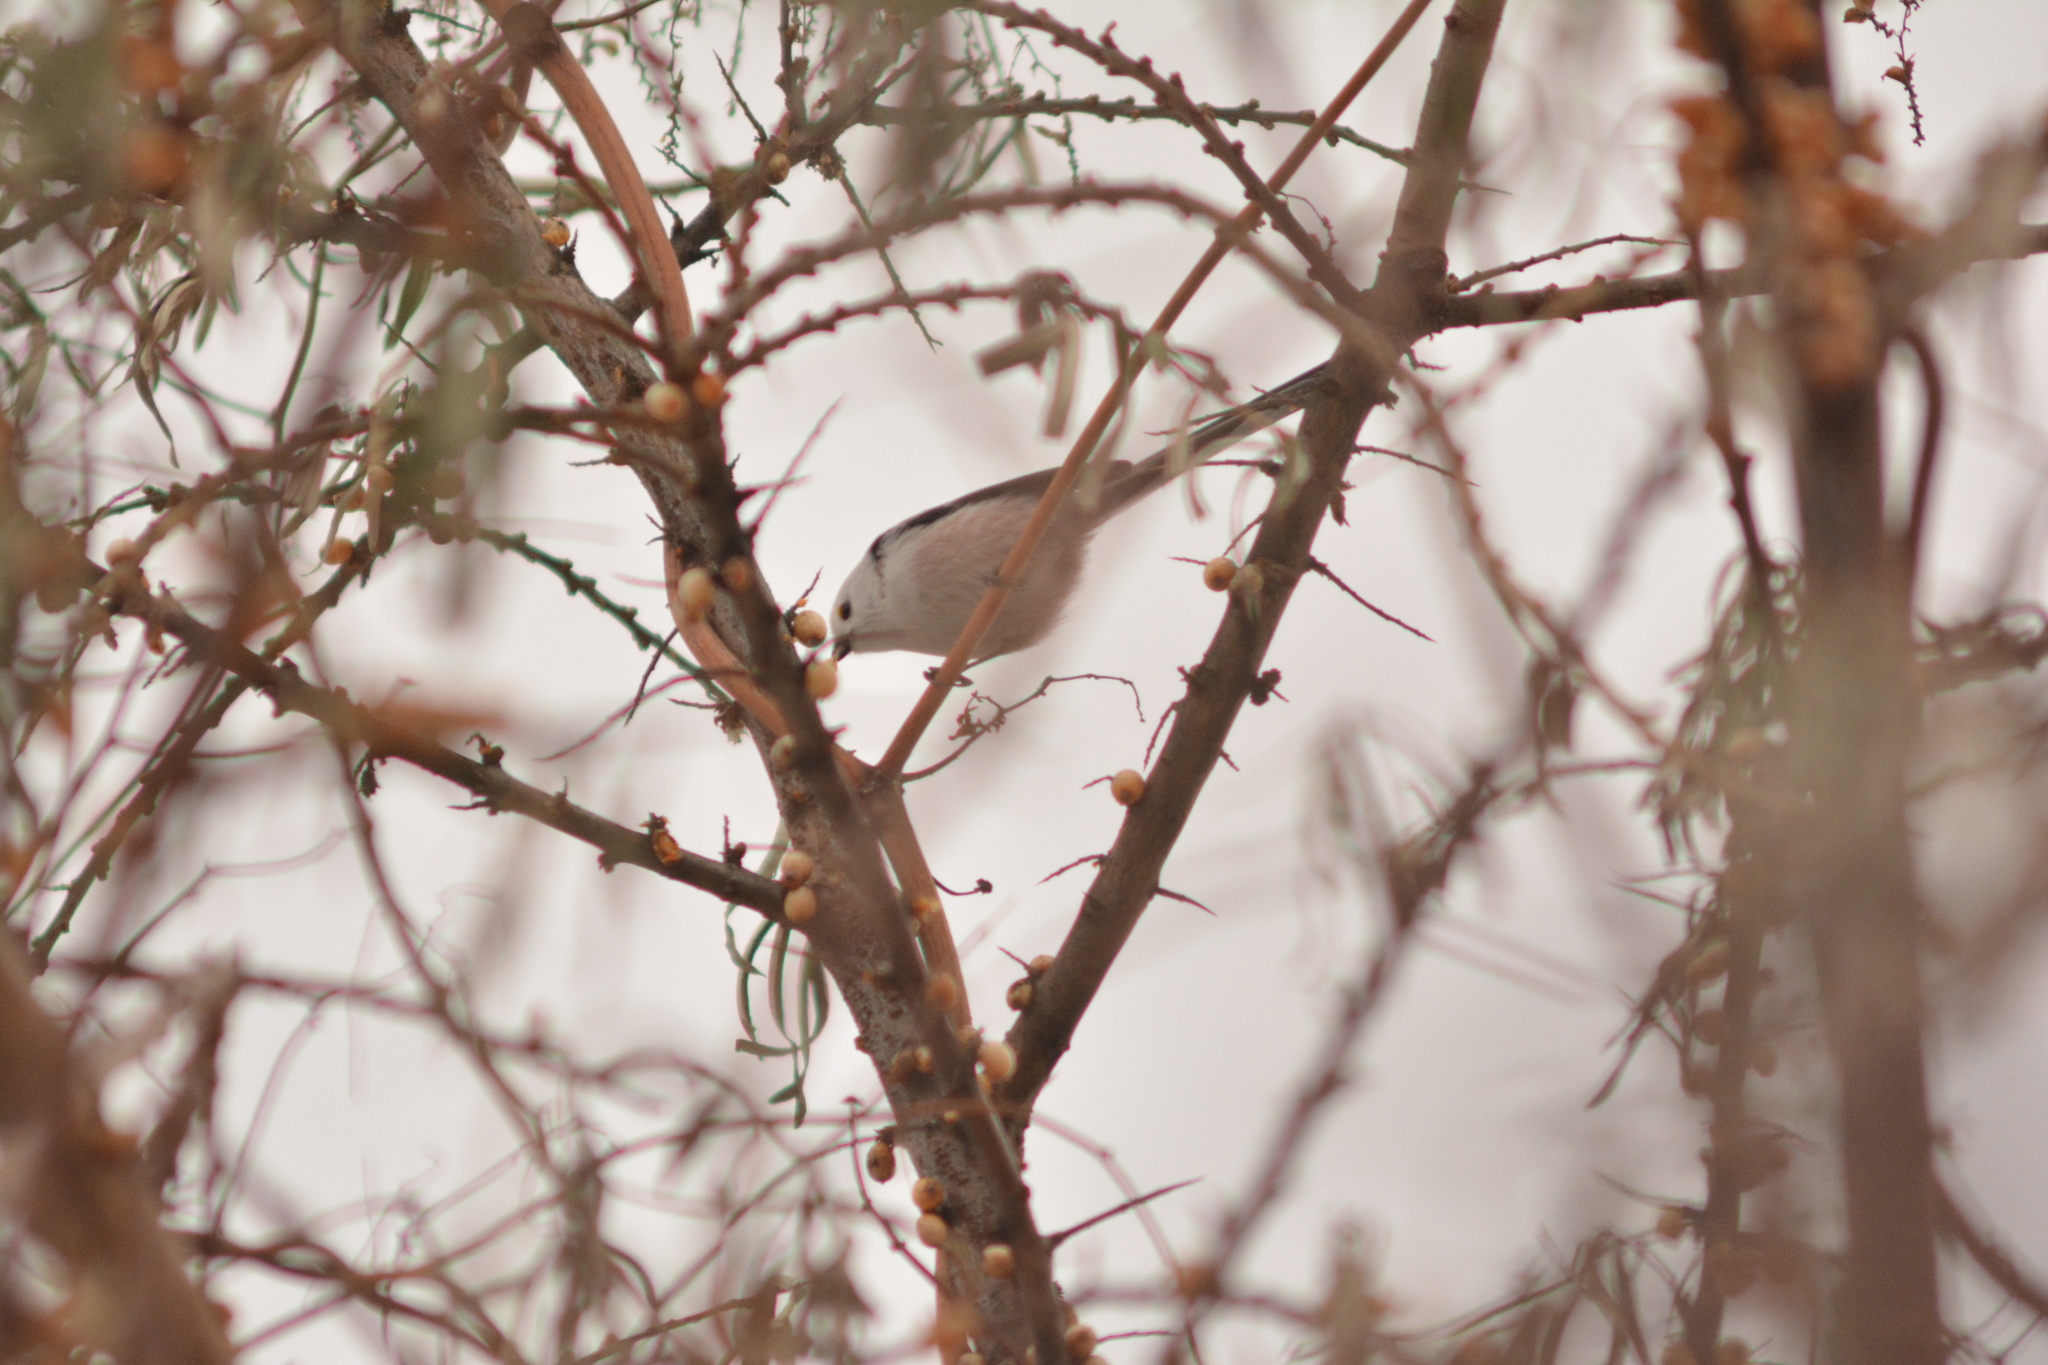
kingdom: Animalia
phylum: Chordata
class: Aves
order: Passeriformes
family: Aegithalidae
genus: Aegithalos
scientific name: Aegithalos caudatus
